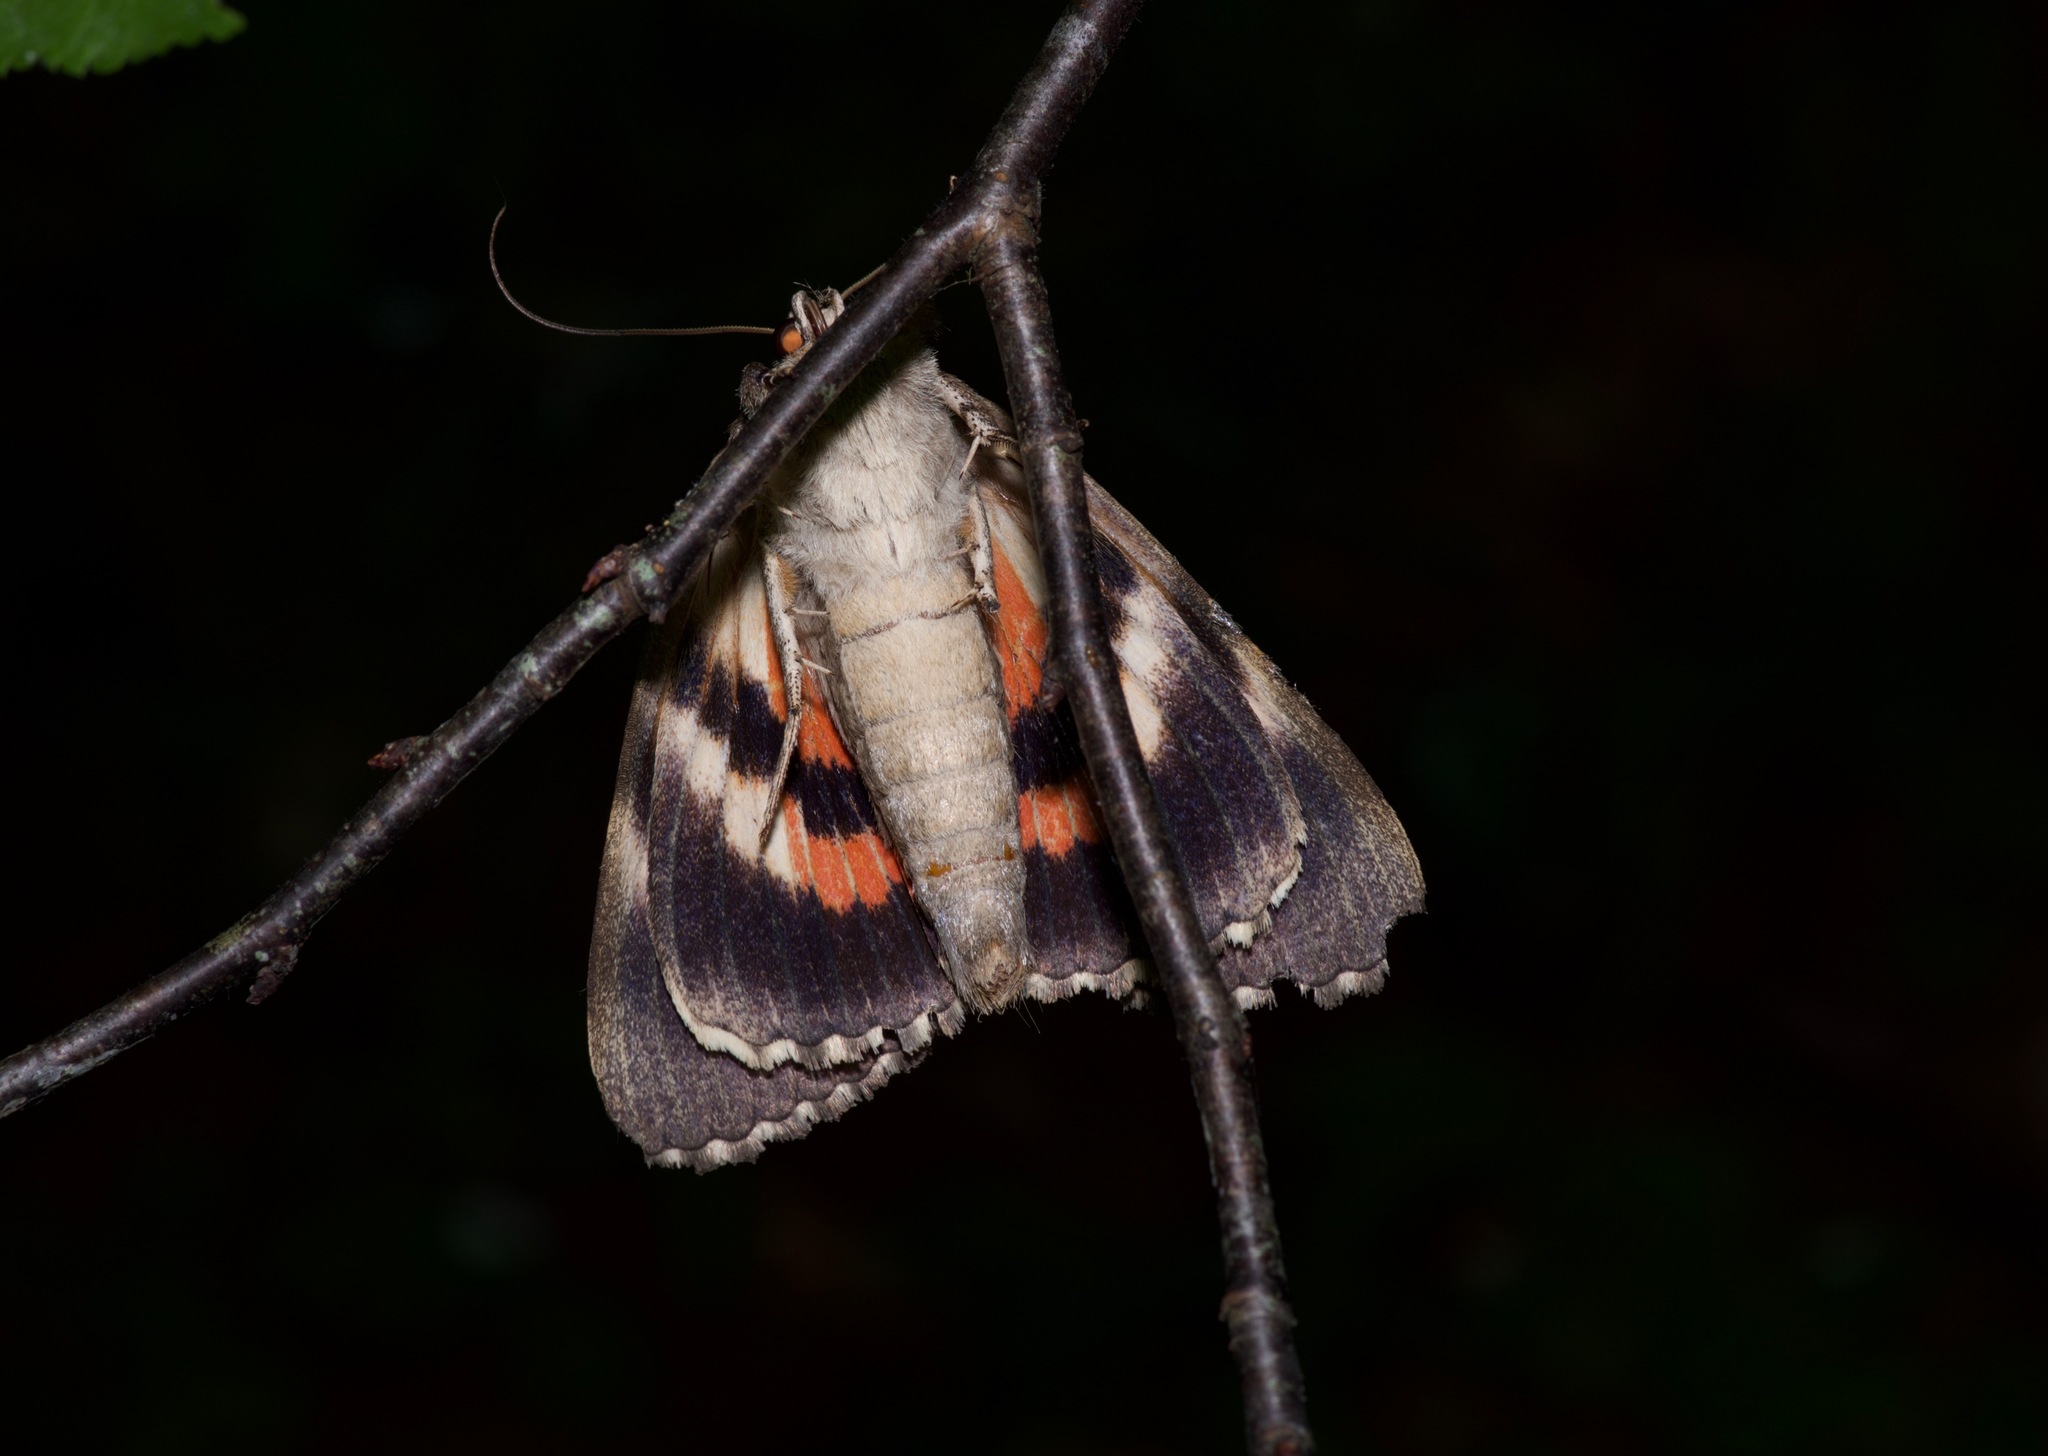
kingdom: Animalia
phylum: Arthropoda
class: Insecta
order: Lepidoptera
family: Erebidae
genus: Catocala
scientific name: Catocala ilia
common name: Ilia underwing
